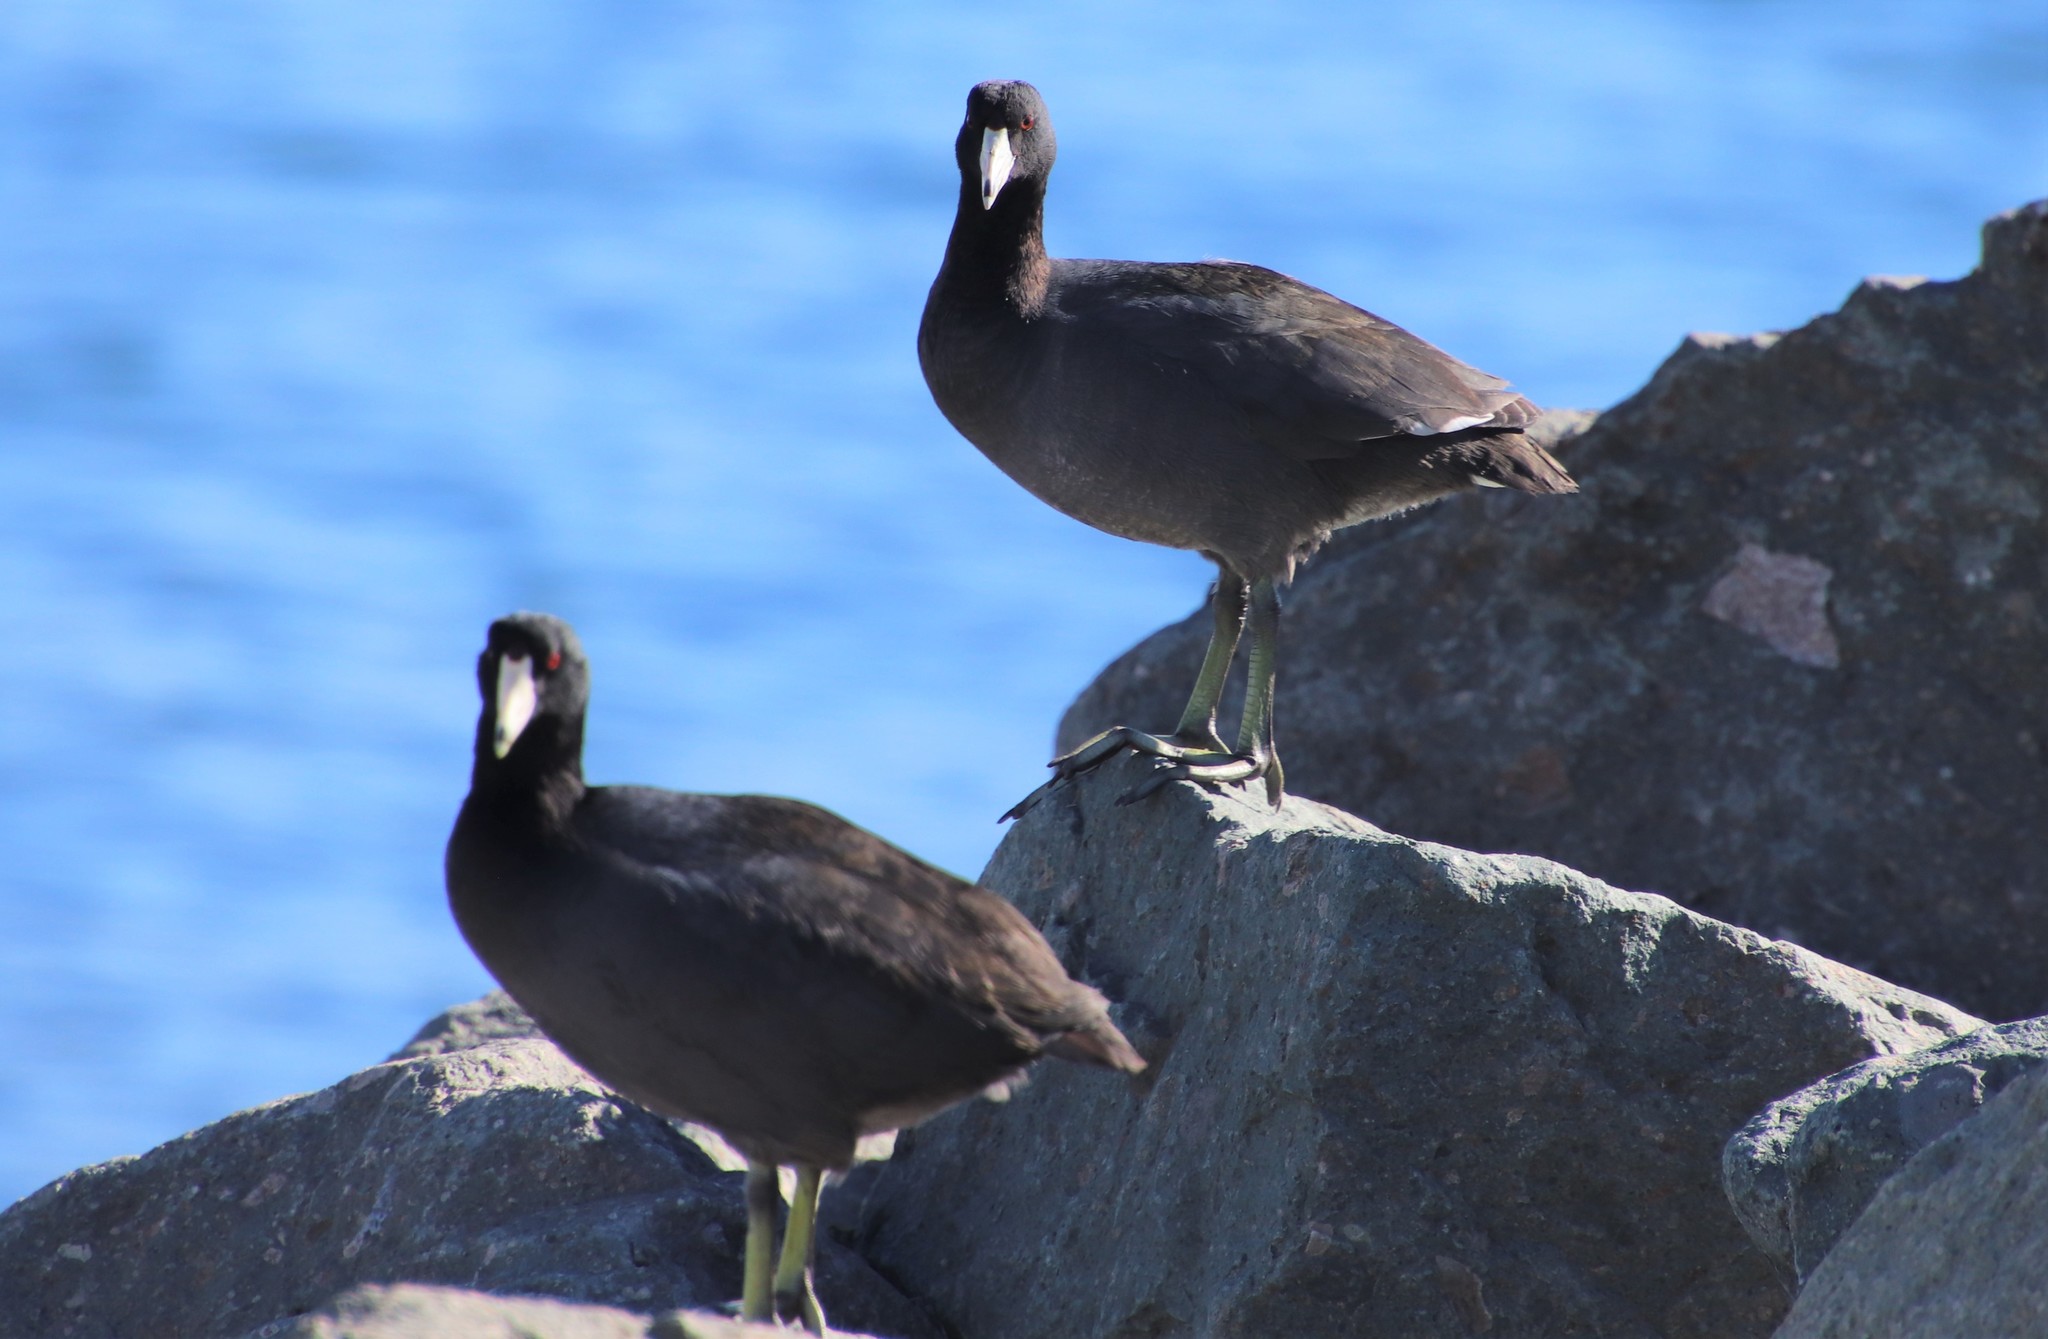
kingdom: Animalia
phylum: Chordata
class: Aves
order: Gruiformes
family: Rallidae
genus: Fulica
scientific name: Fulica americana
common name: American coot
